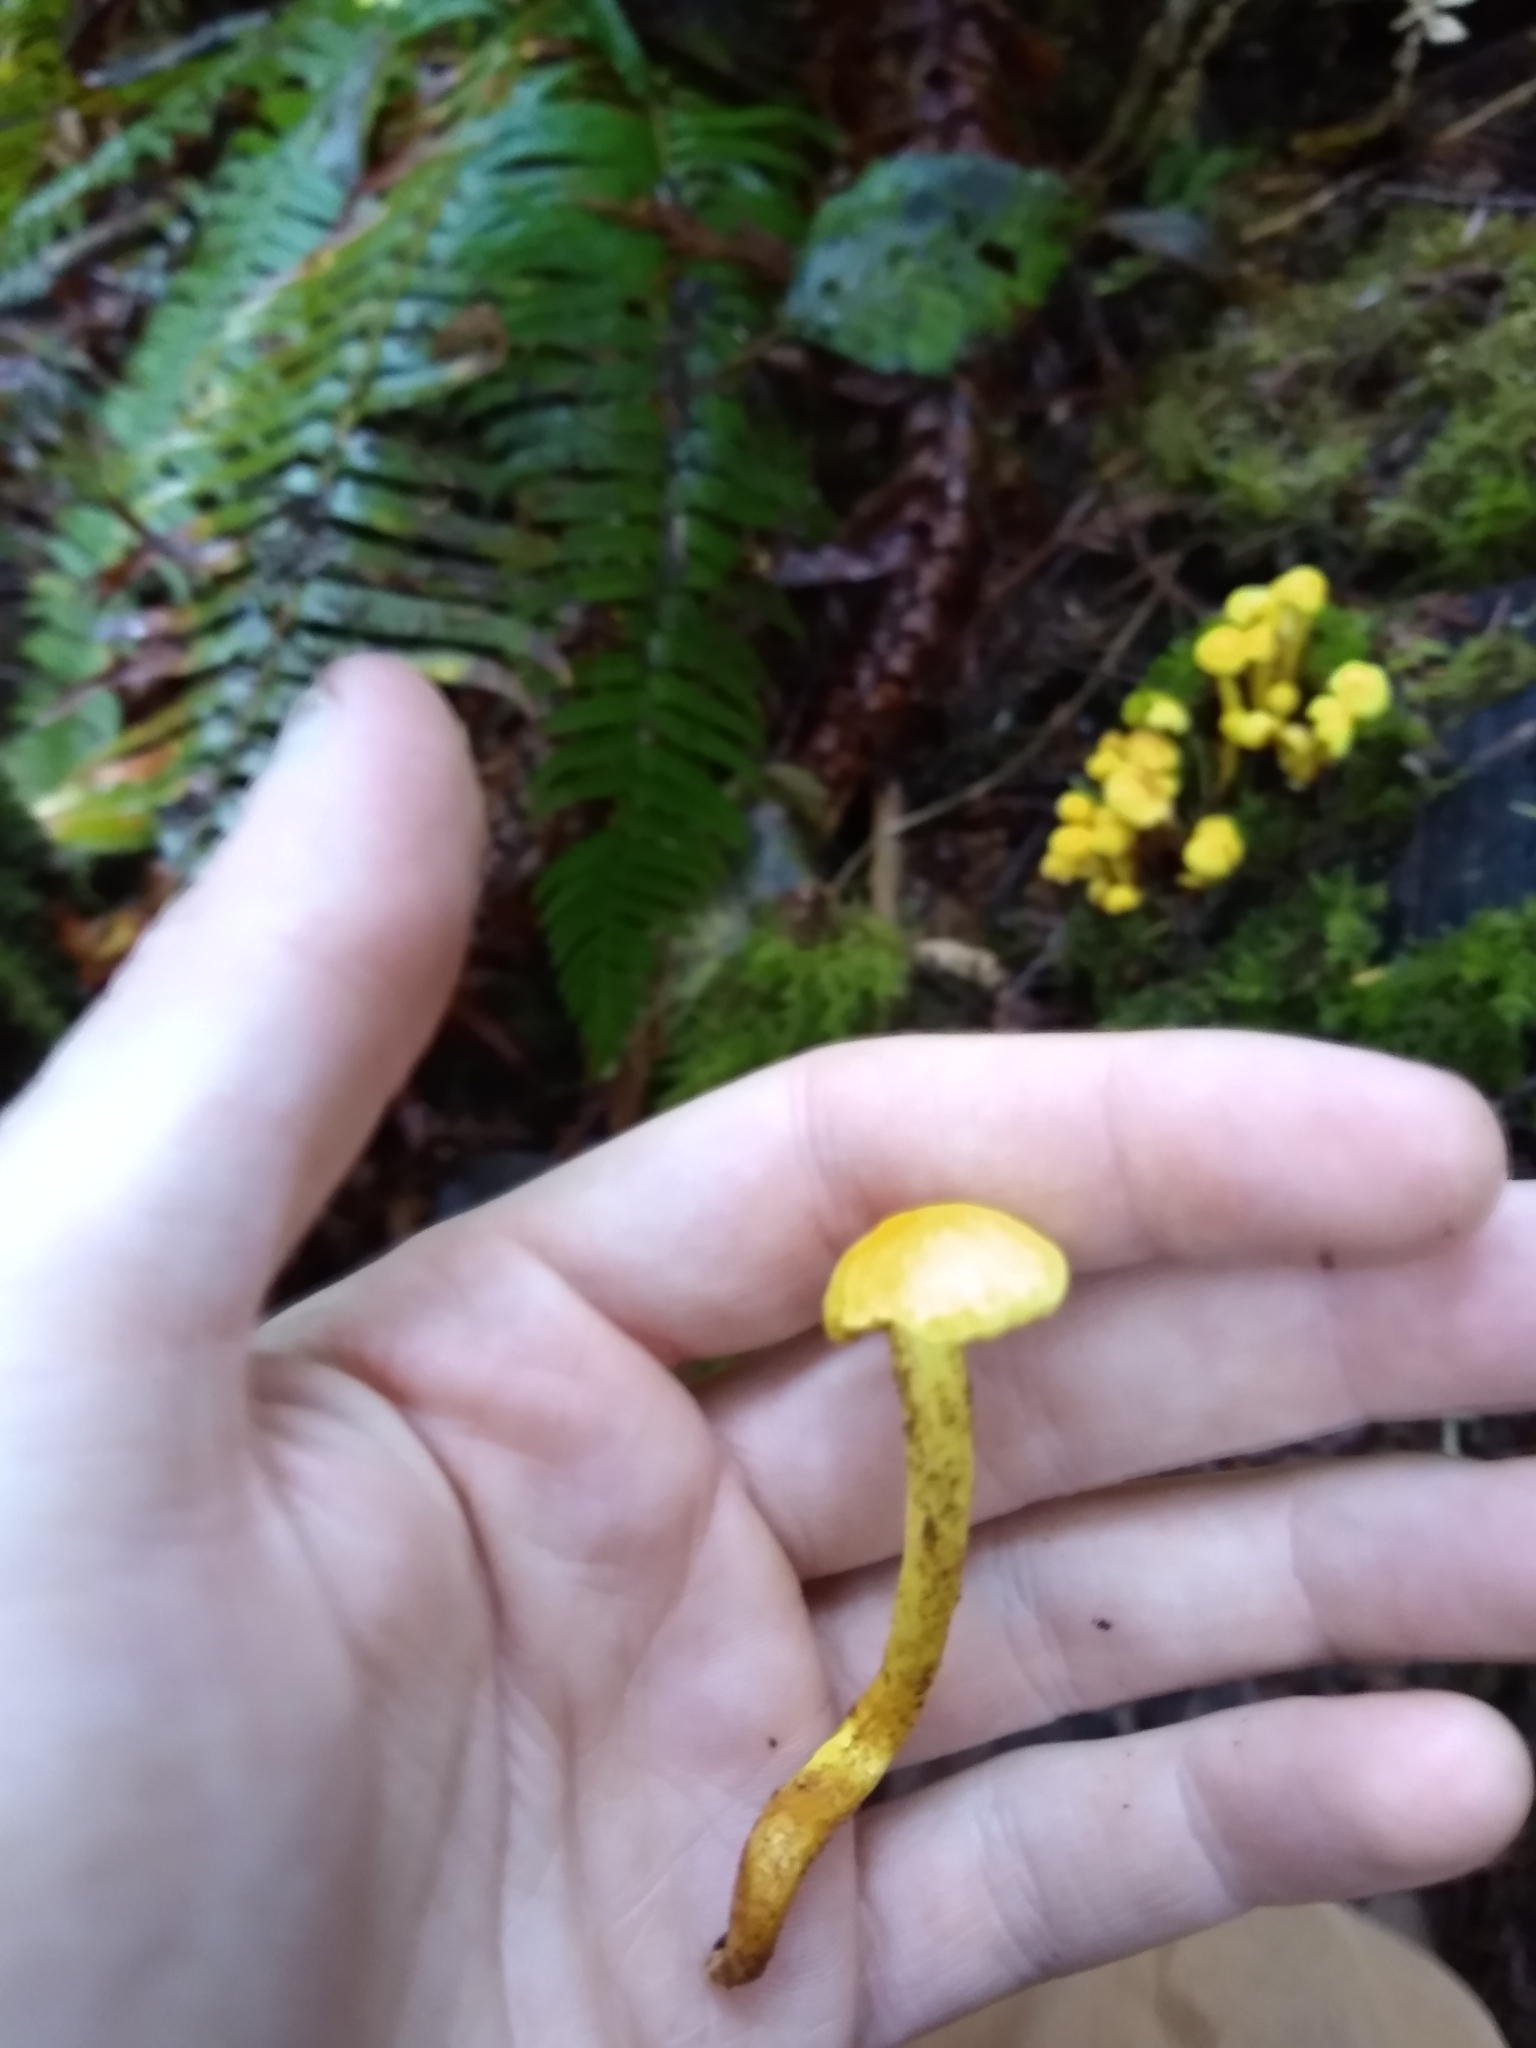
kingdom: Fungi
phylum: Basidiomycota
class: Agaricomycetes
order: Agaricales
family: Strophariaceae
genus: Hypholoma
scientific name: Hypholoma fasciculare
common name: Sulphur tuft
